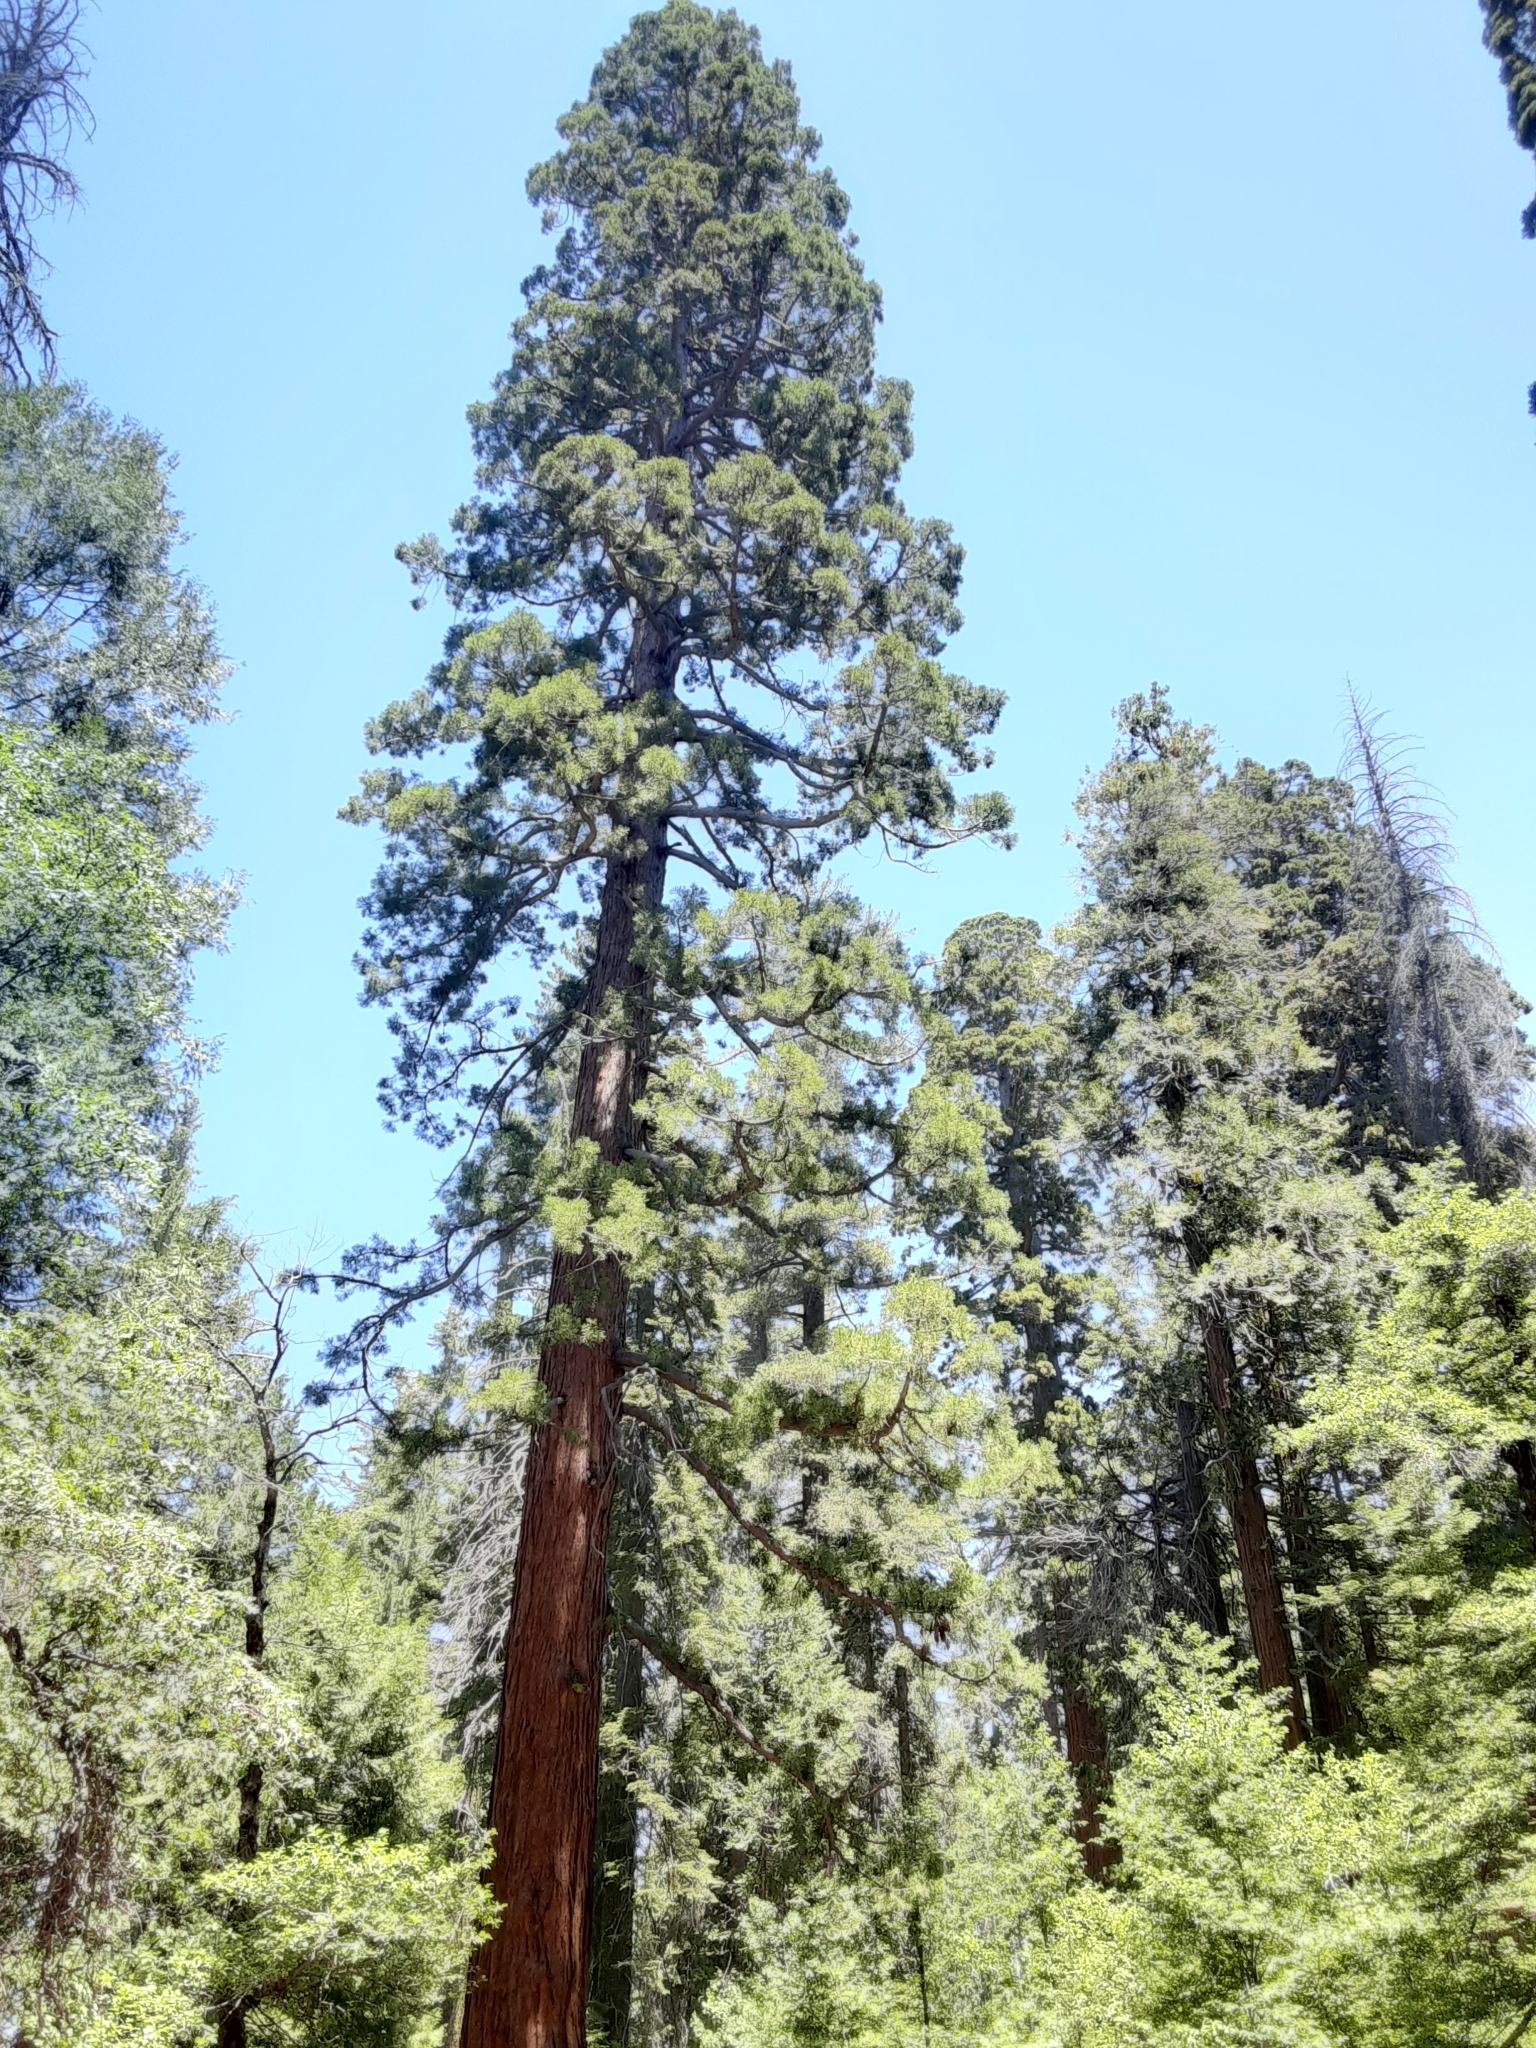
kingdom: Plantae
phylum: Tracheophyta
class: Pinopsida
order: Pinales
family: Cupressaceae
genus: Sequoiadendron
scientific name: Sequoiadendron giganteum
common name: Wellingtonia
